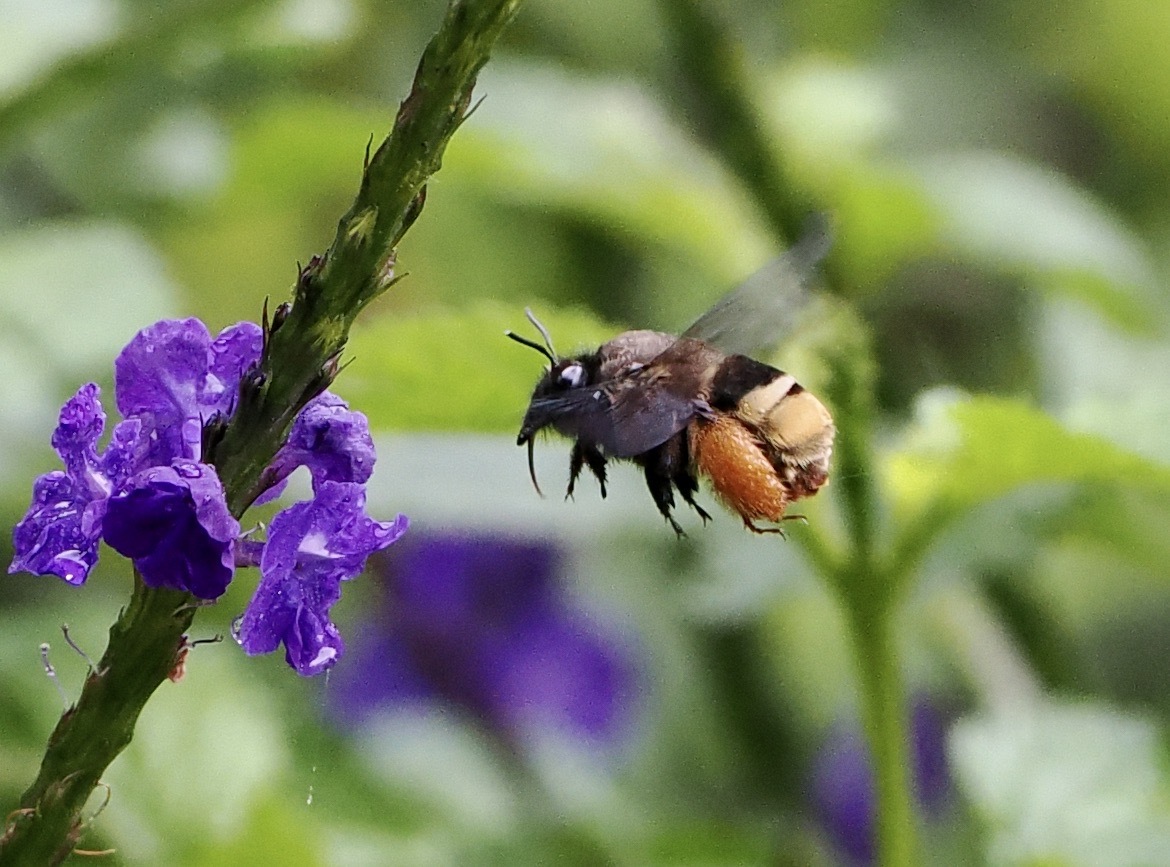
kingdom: Animalia
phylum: Arthropoda
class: Insecta
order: Hymenoptera
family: Apidae
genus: Centris
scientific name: Centris festiva
